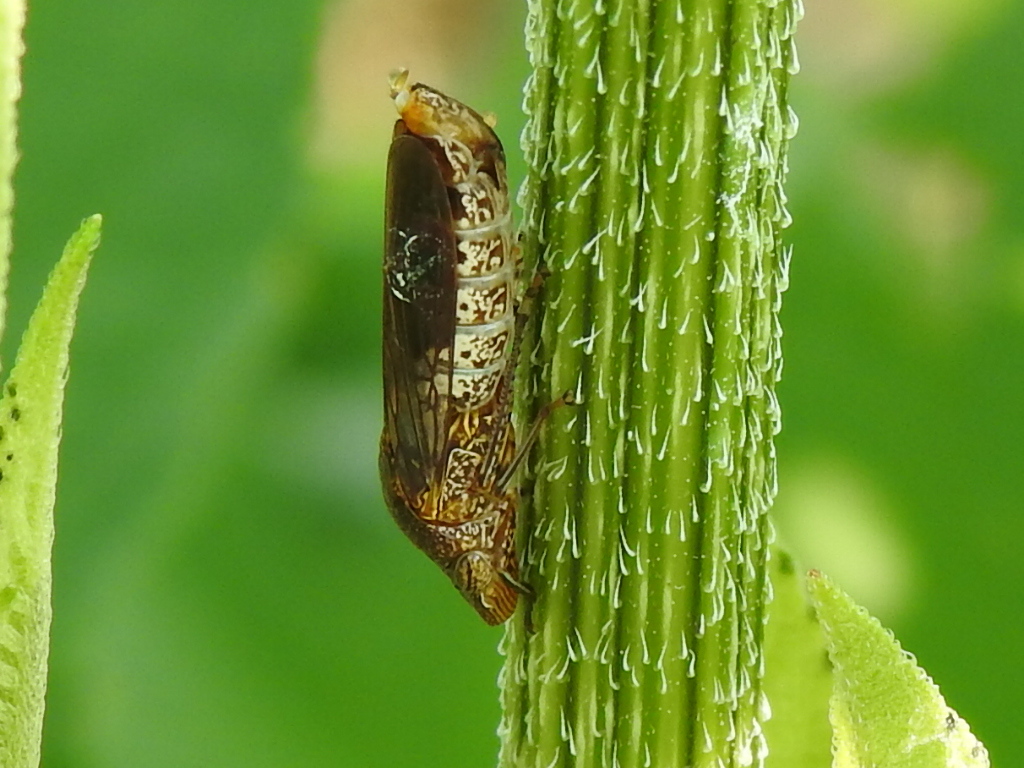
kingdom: Animalia
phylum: Arthropoda
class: Insecta
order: Hemiptera
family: Cicadellidae
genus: Homalodisca
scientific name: Homalodisca vitripennis
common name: Glassy-winged sharpshooter
